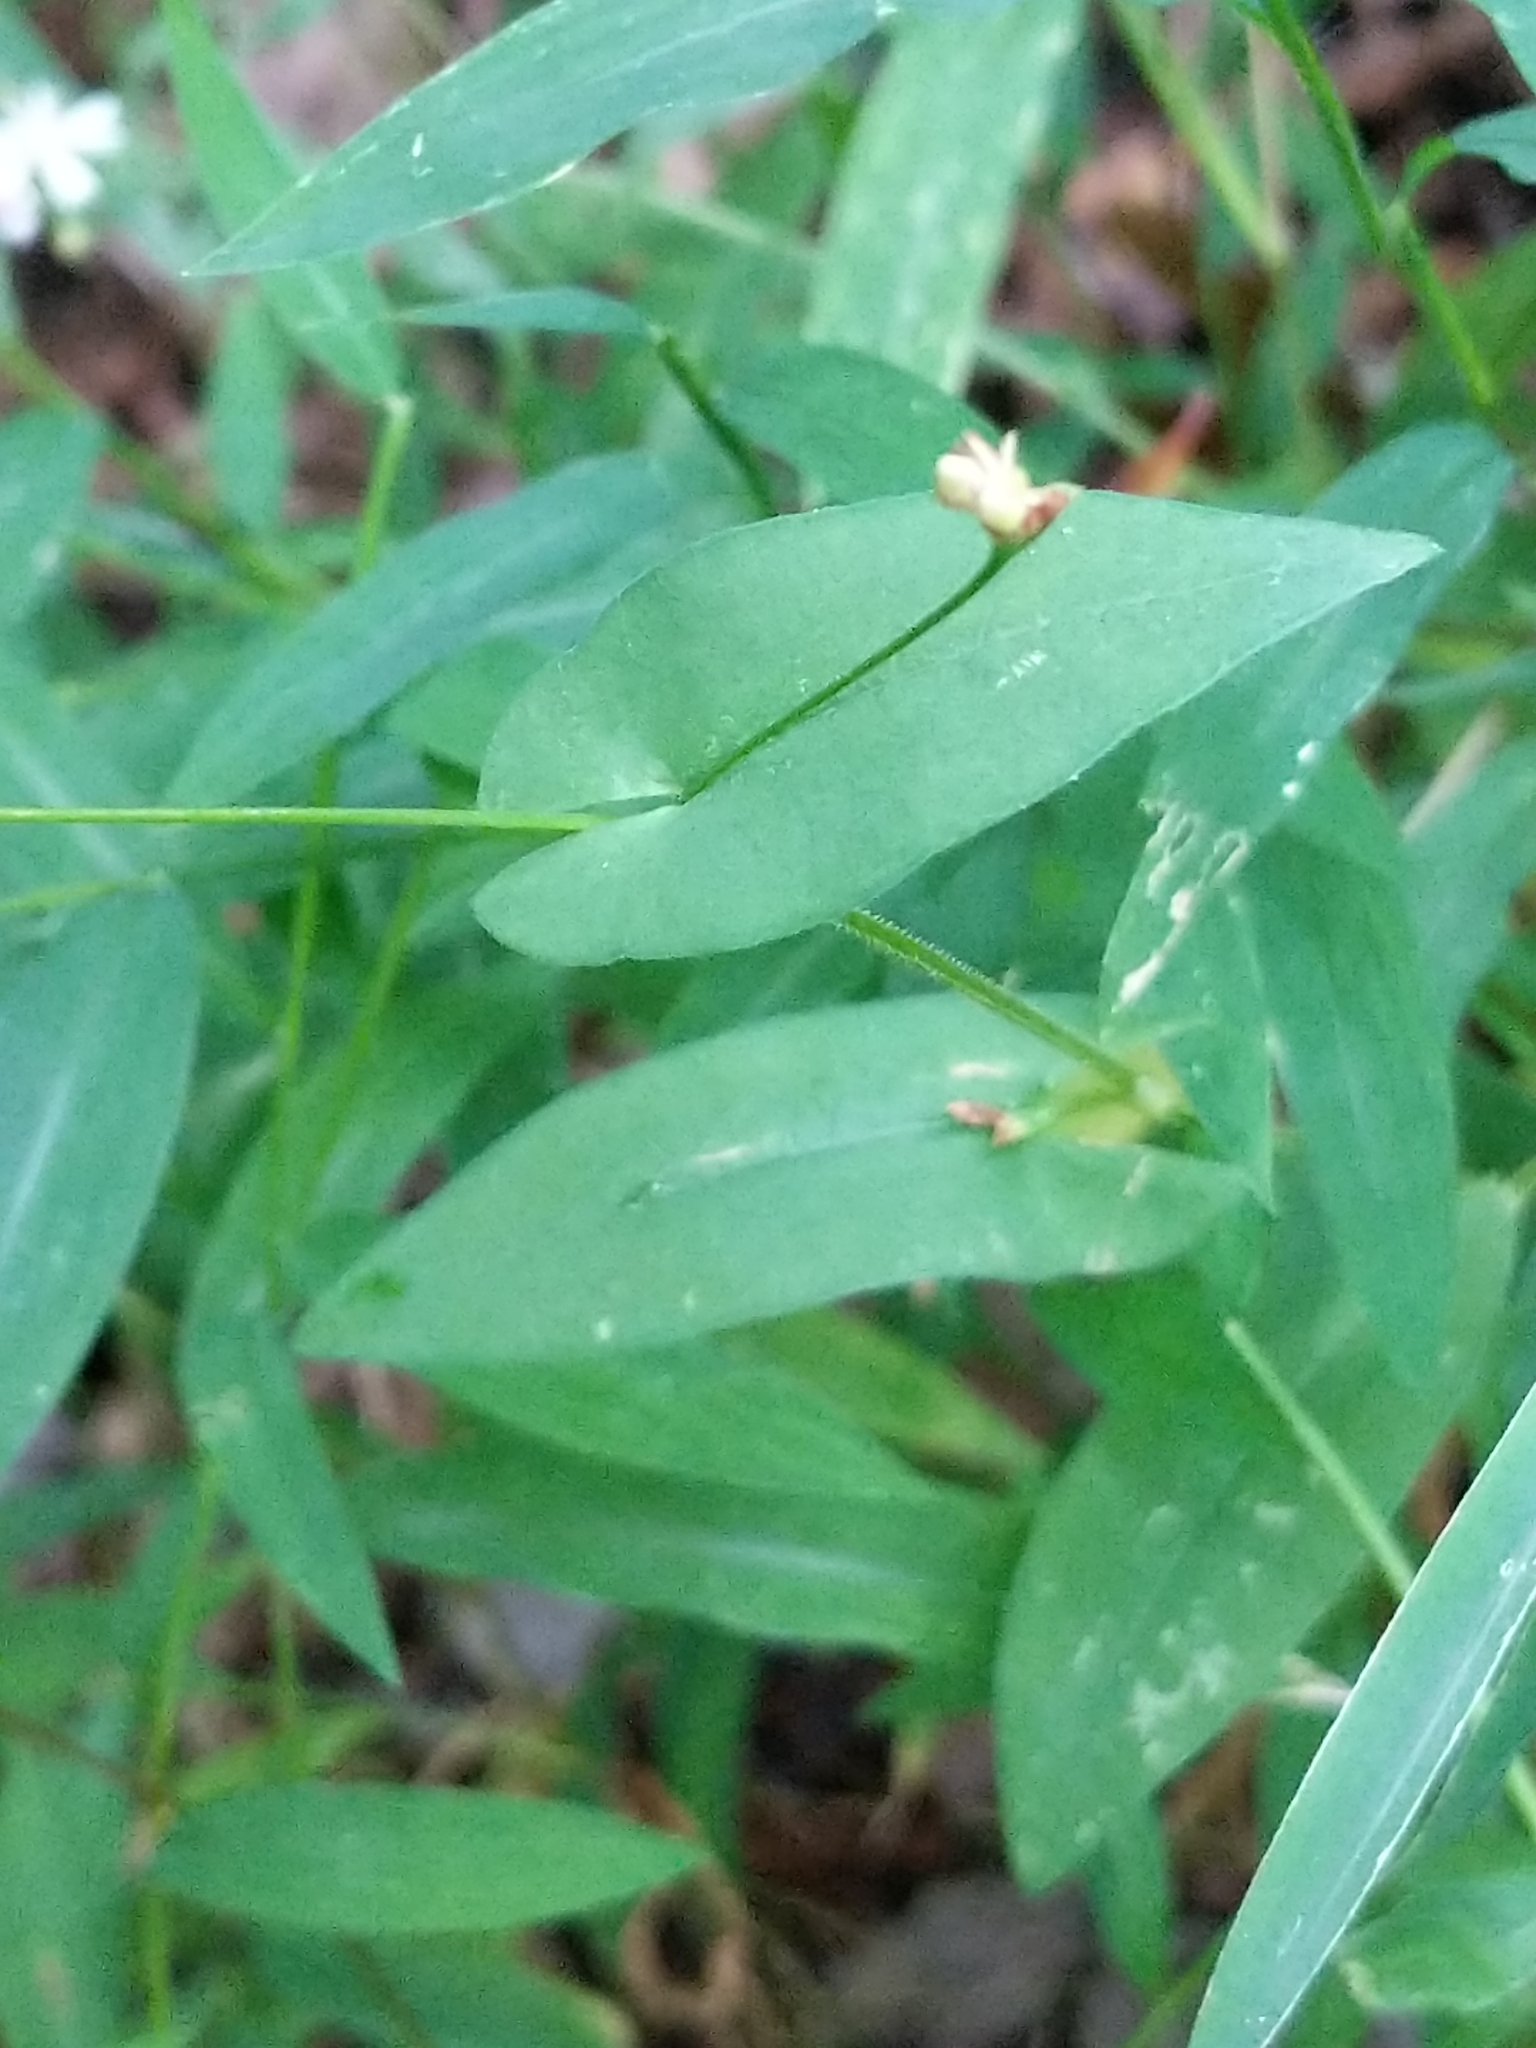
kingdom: Plantae
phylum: Tracheophyta
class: Magnoliopsida
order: Caryophyllales
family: Polygonaceae
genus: Persicaria
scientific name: Persicaria sagittata
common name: American tearthumb
